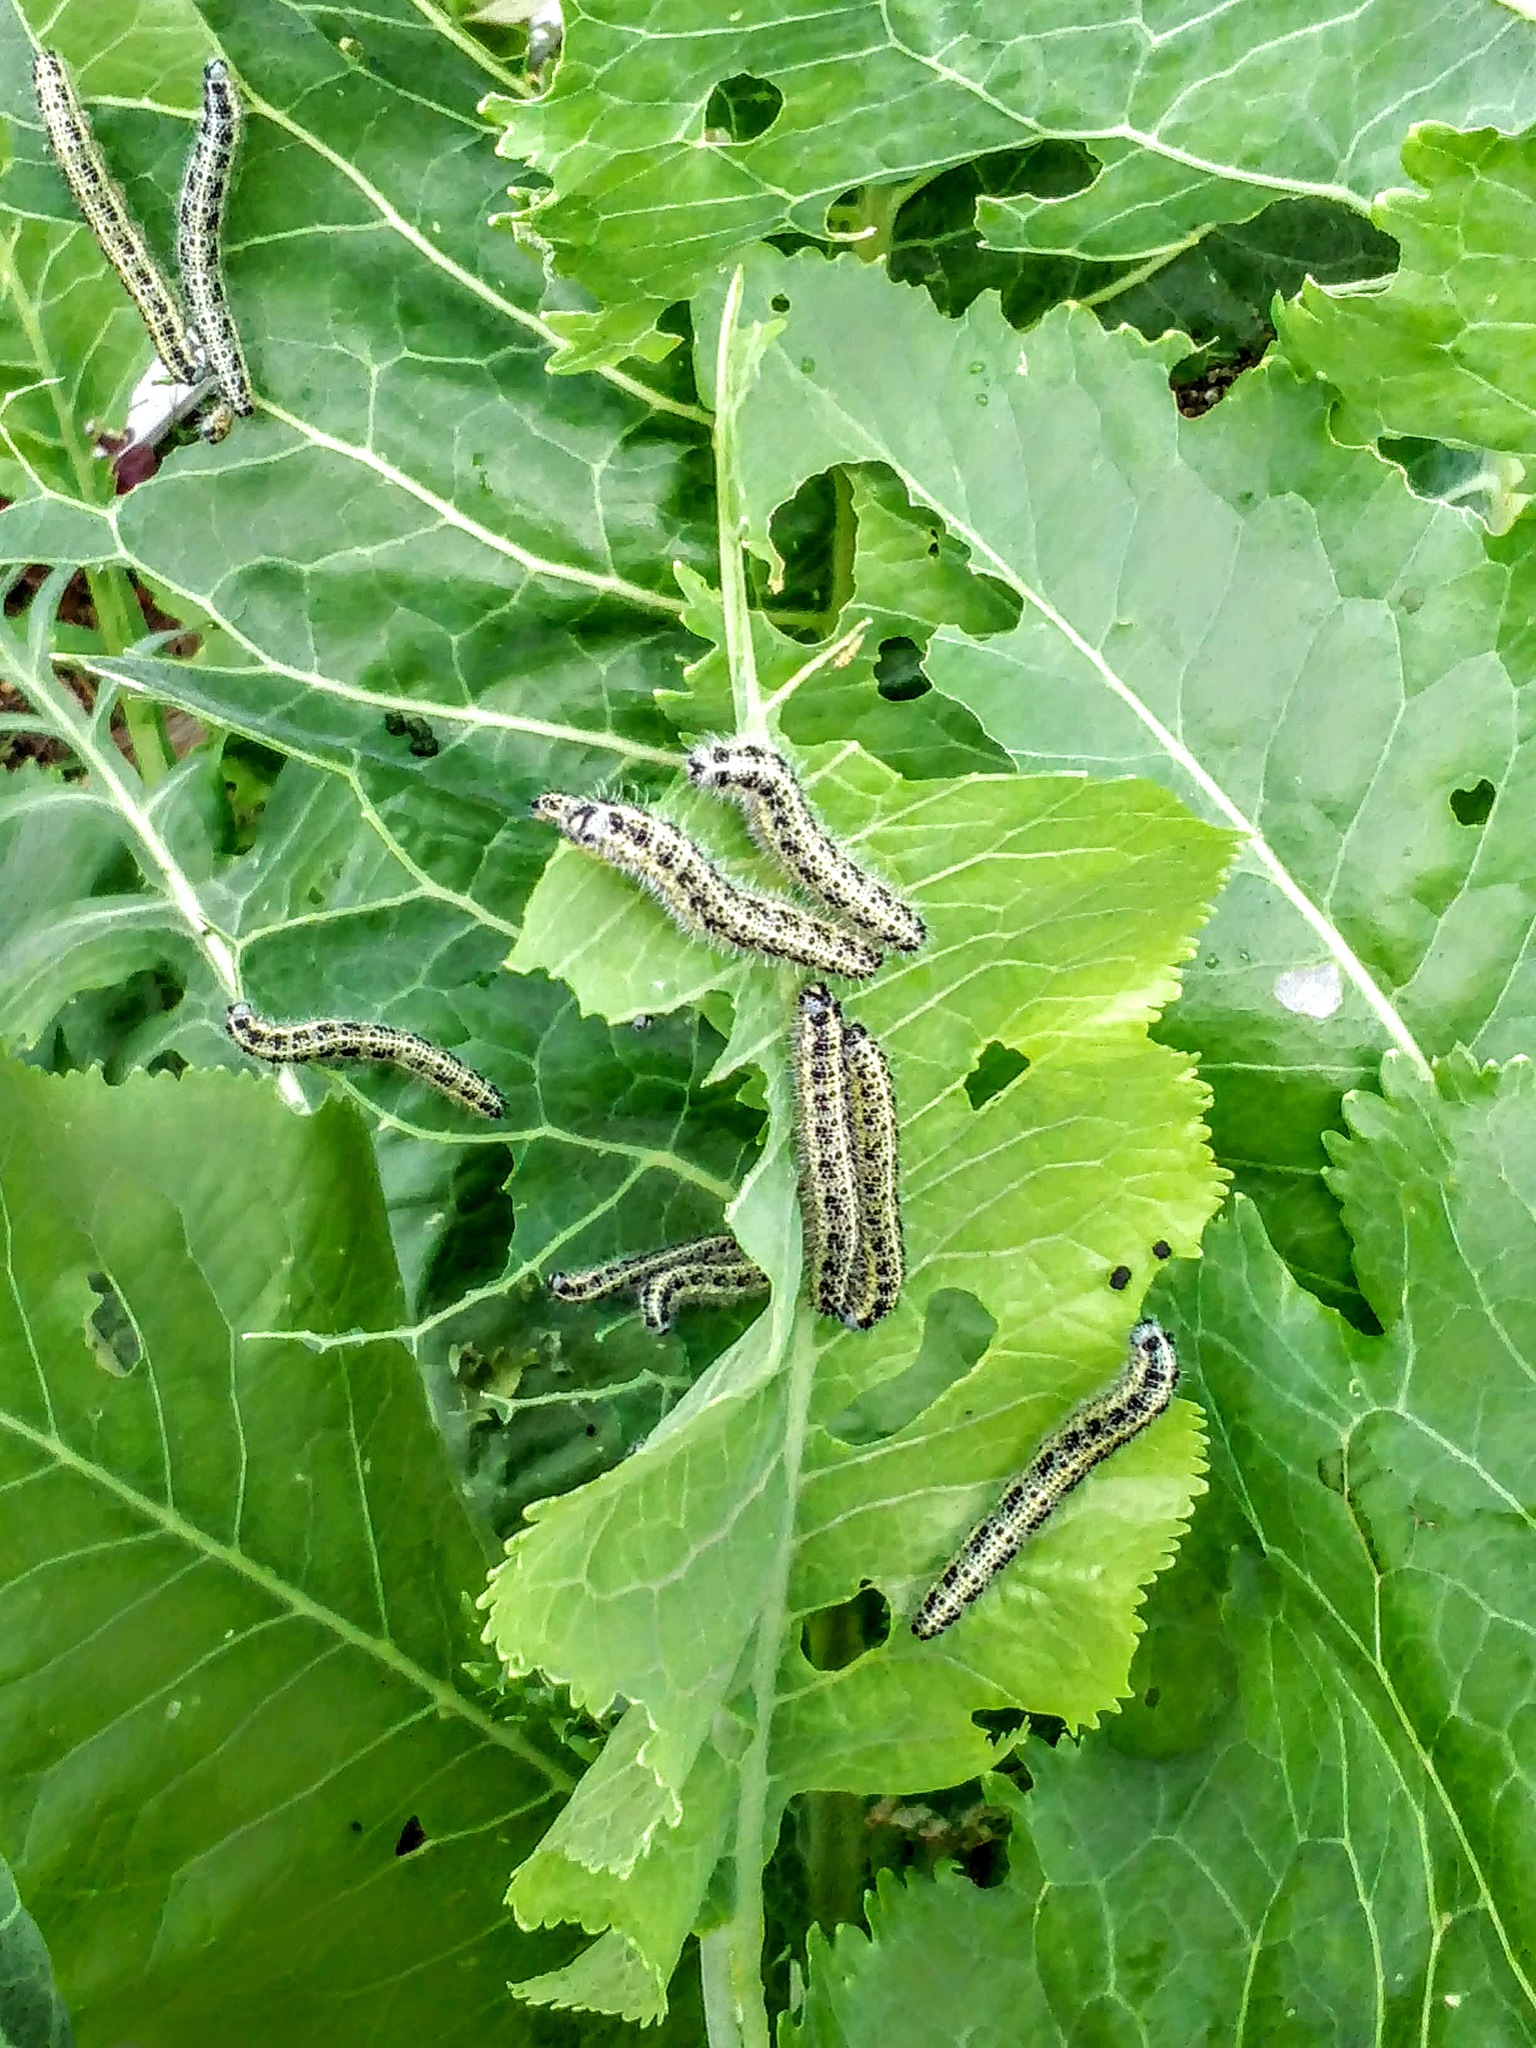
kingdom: Animalia
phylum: Arthropoda
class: Insecta
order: Lepidoptera
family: Pieridae
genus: Pieris
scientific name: Pieris brassicae
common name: Large white
